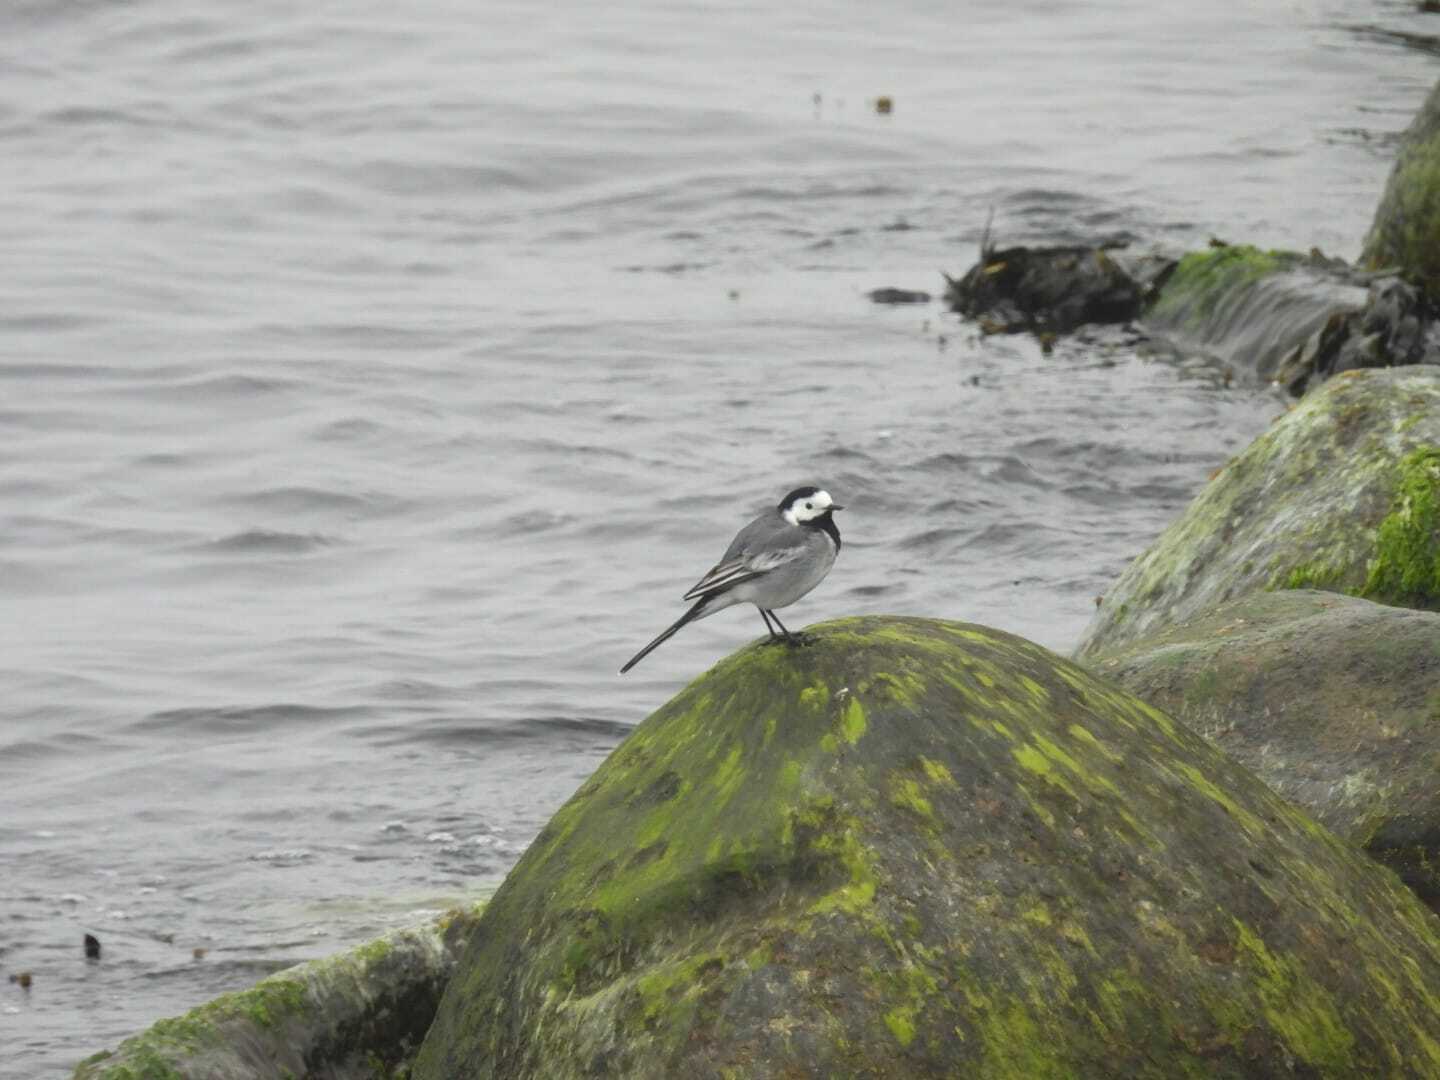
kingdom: Animalia
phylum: Chordata
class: Aves
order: Passeriformes
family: Motacillidae
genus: Motacilla
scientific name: Motacilla alba
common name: White wagtail
